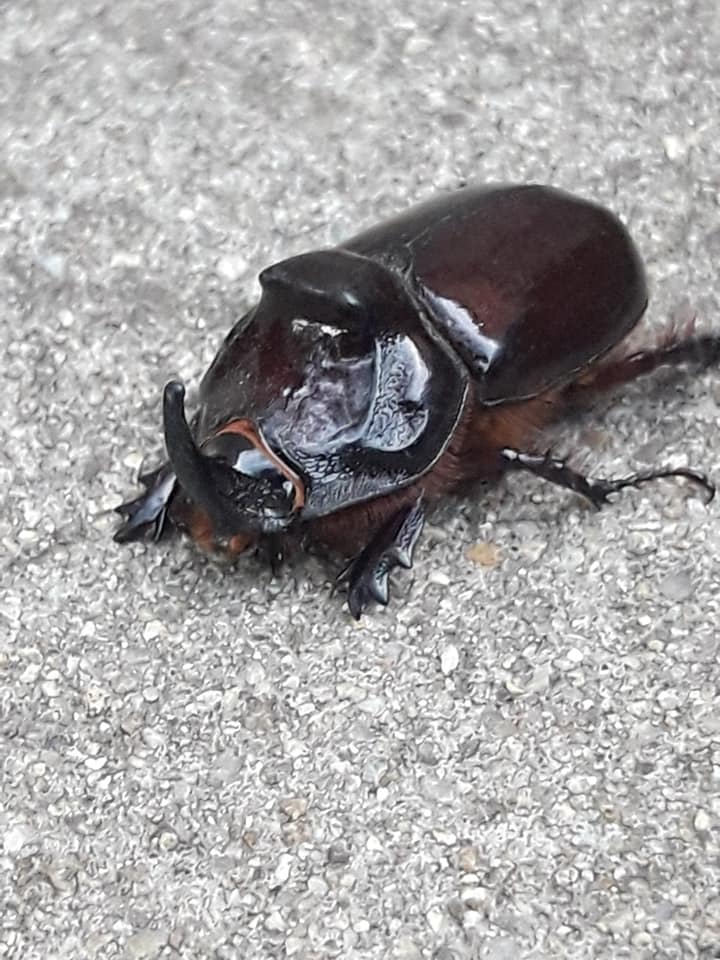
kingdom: Animalia
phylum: Arthropoda
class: Insecta
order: Coleoptera
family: Scarabaeidae
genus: Oryctes
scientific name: Oryctes nasicornis
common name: European rhinoceros beetle
